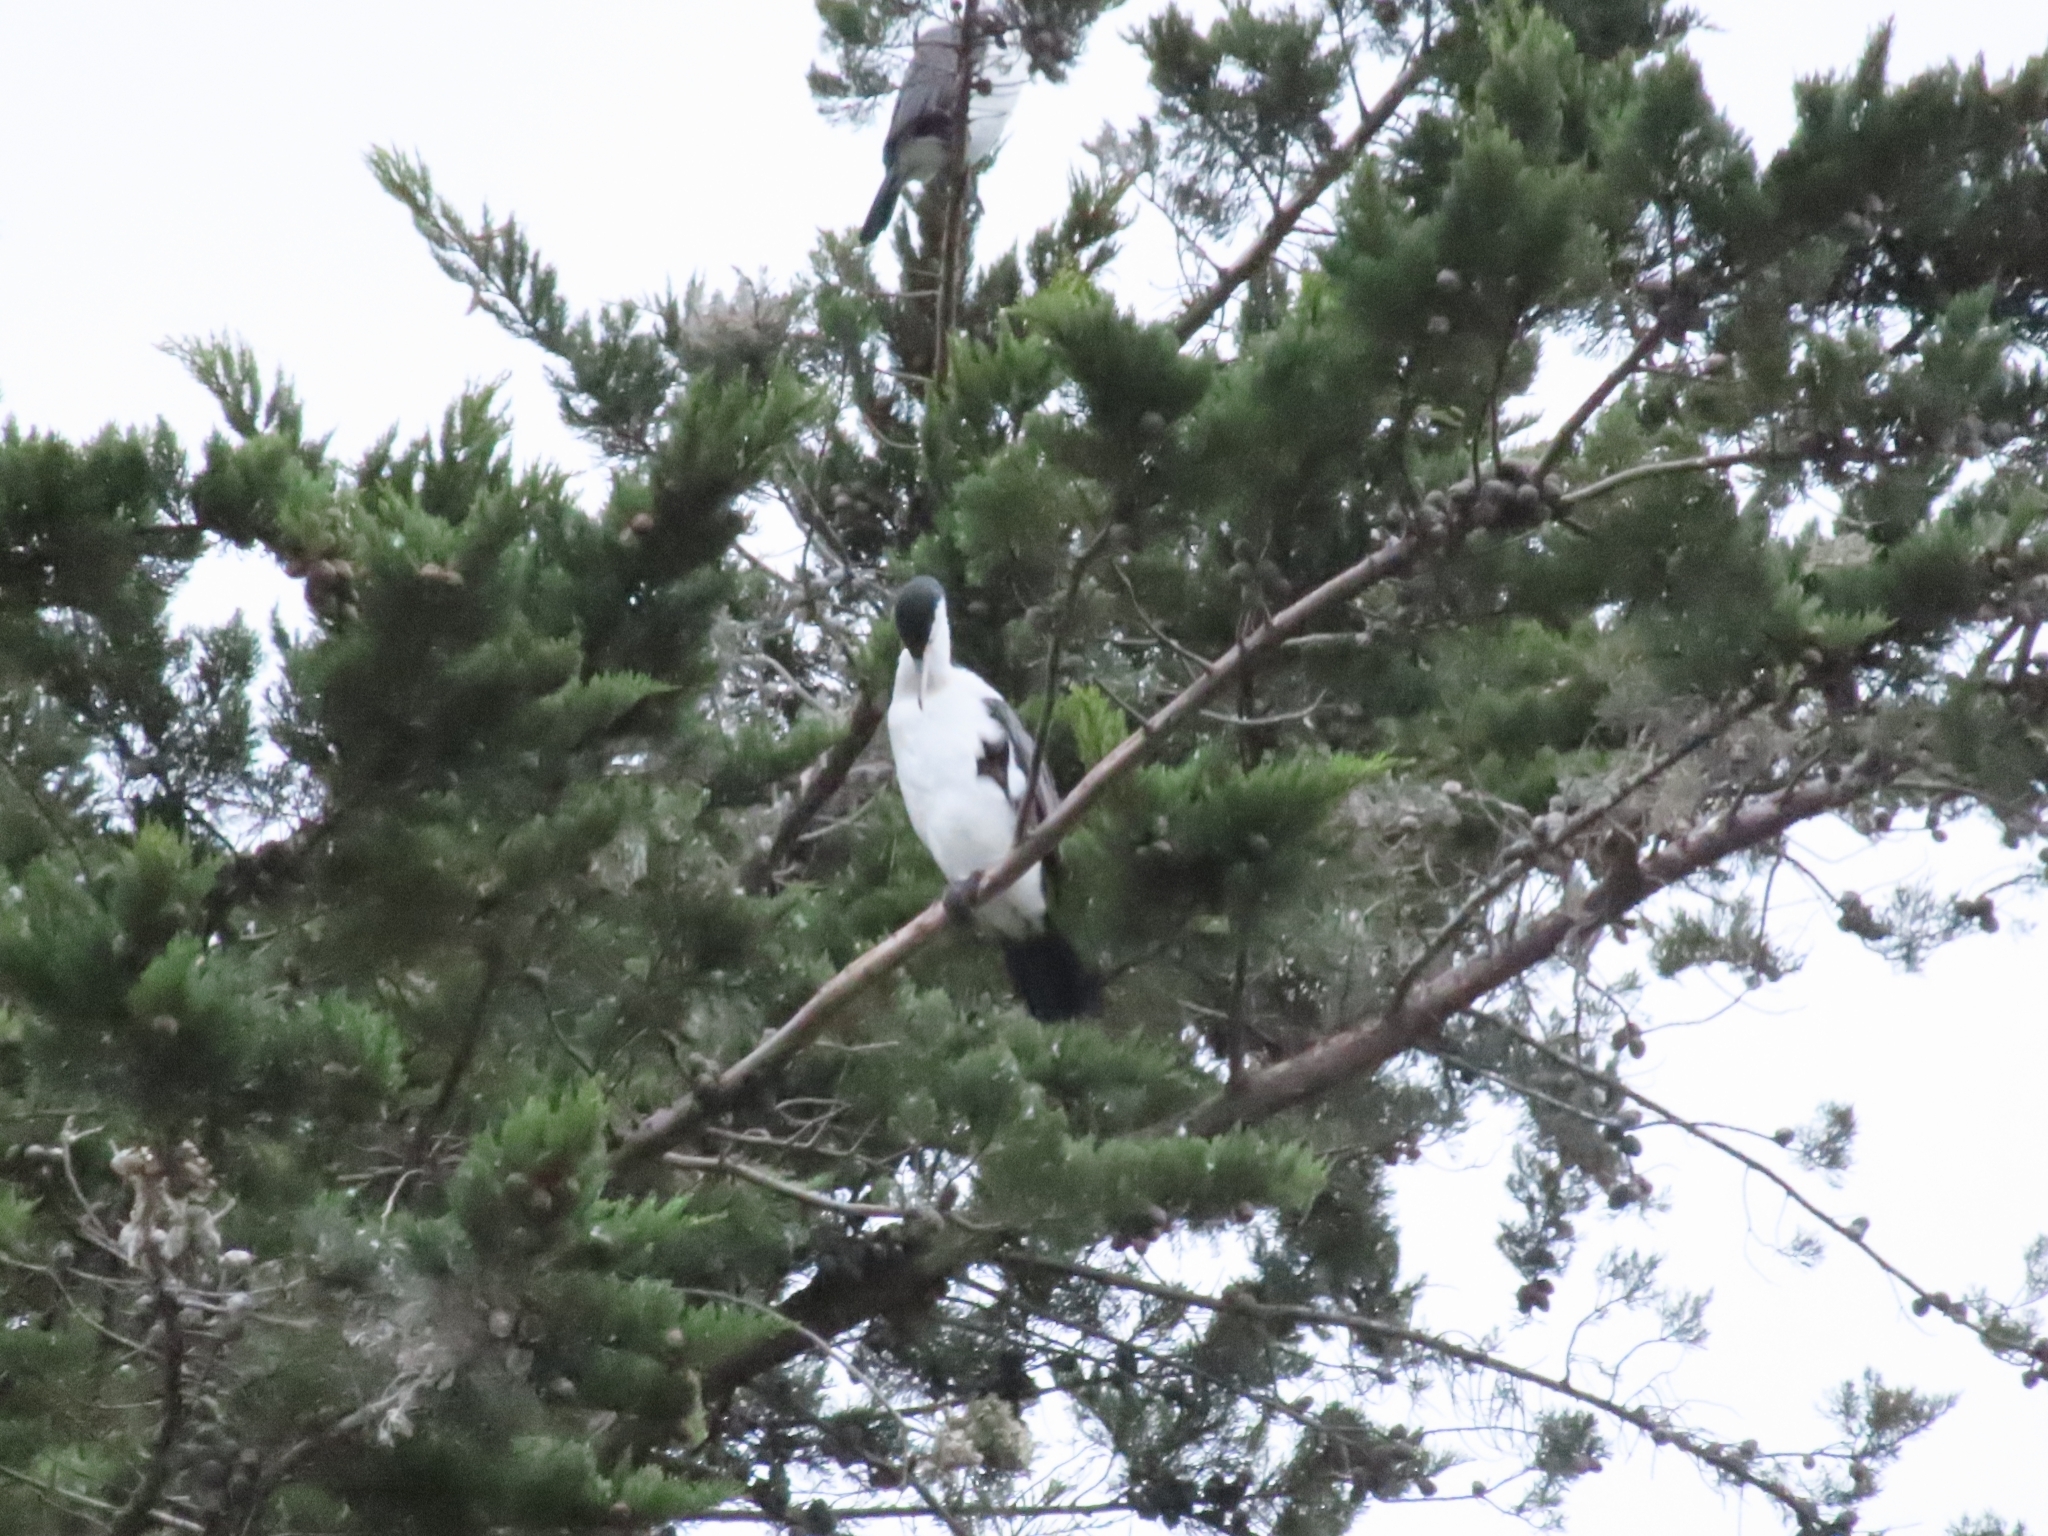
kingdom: Animalia
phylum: Chordata
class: Aves
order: Suliformes
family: Phalacrocoracidae
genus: Phalacrocorax
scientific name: Phalacrocorax varius
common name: Pied cormorant
